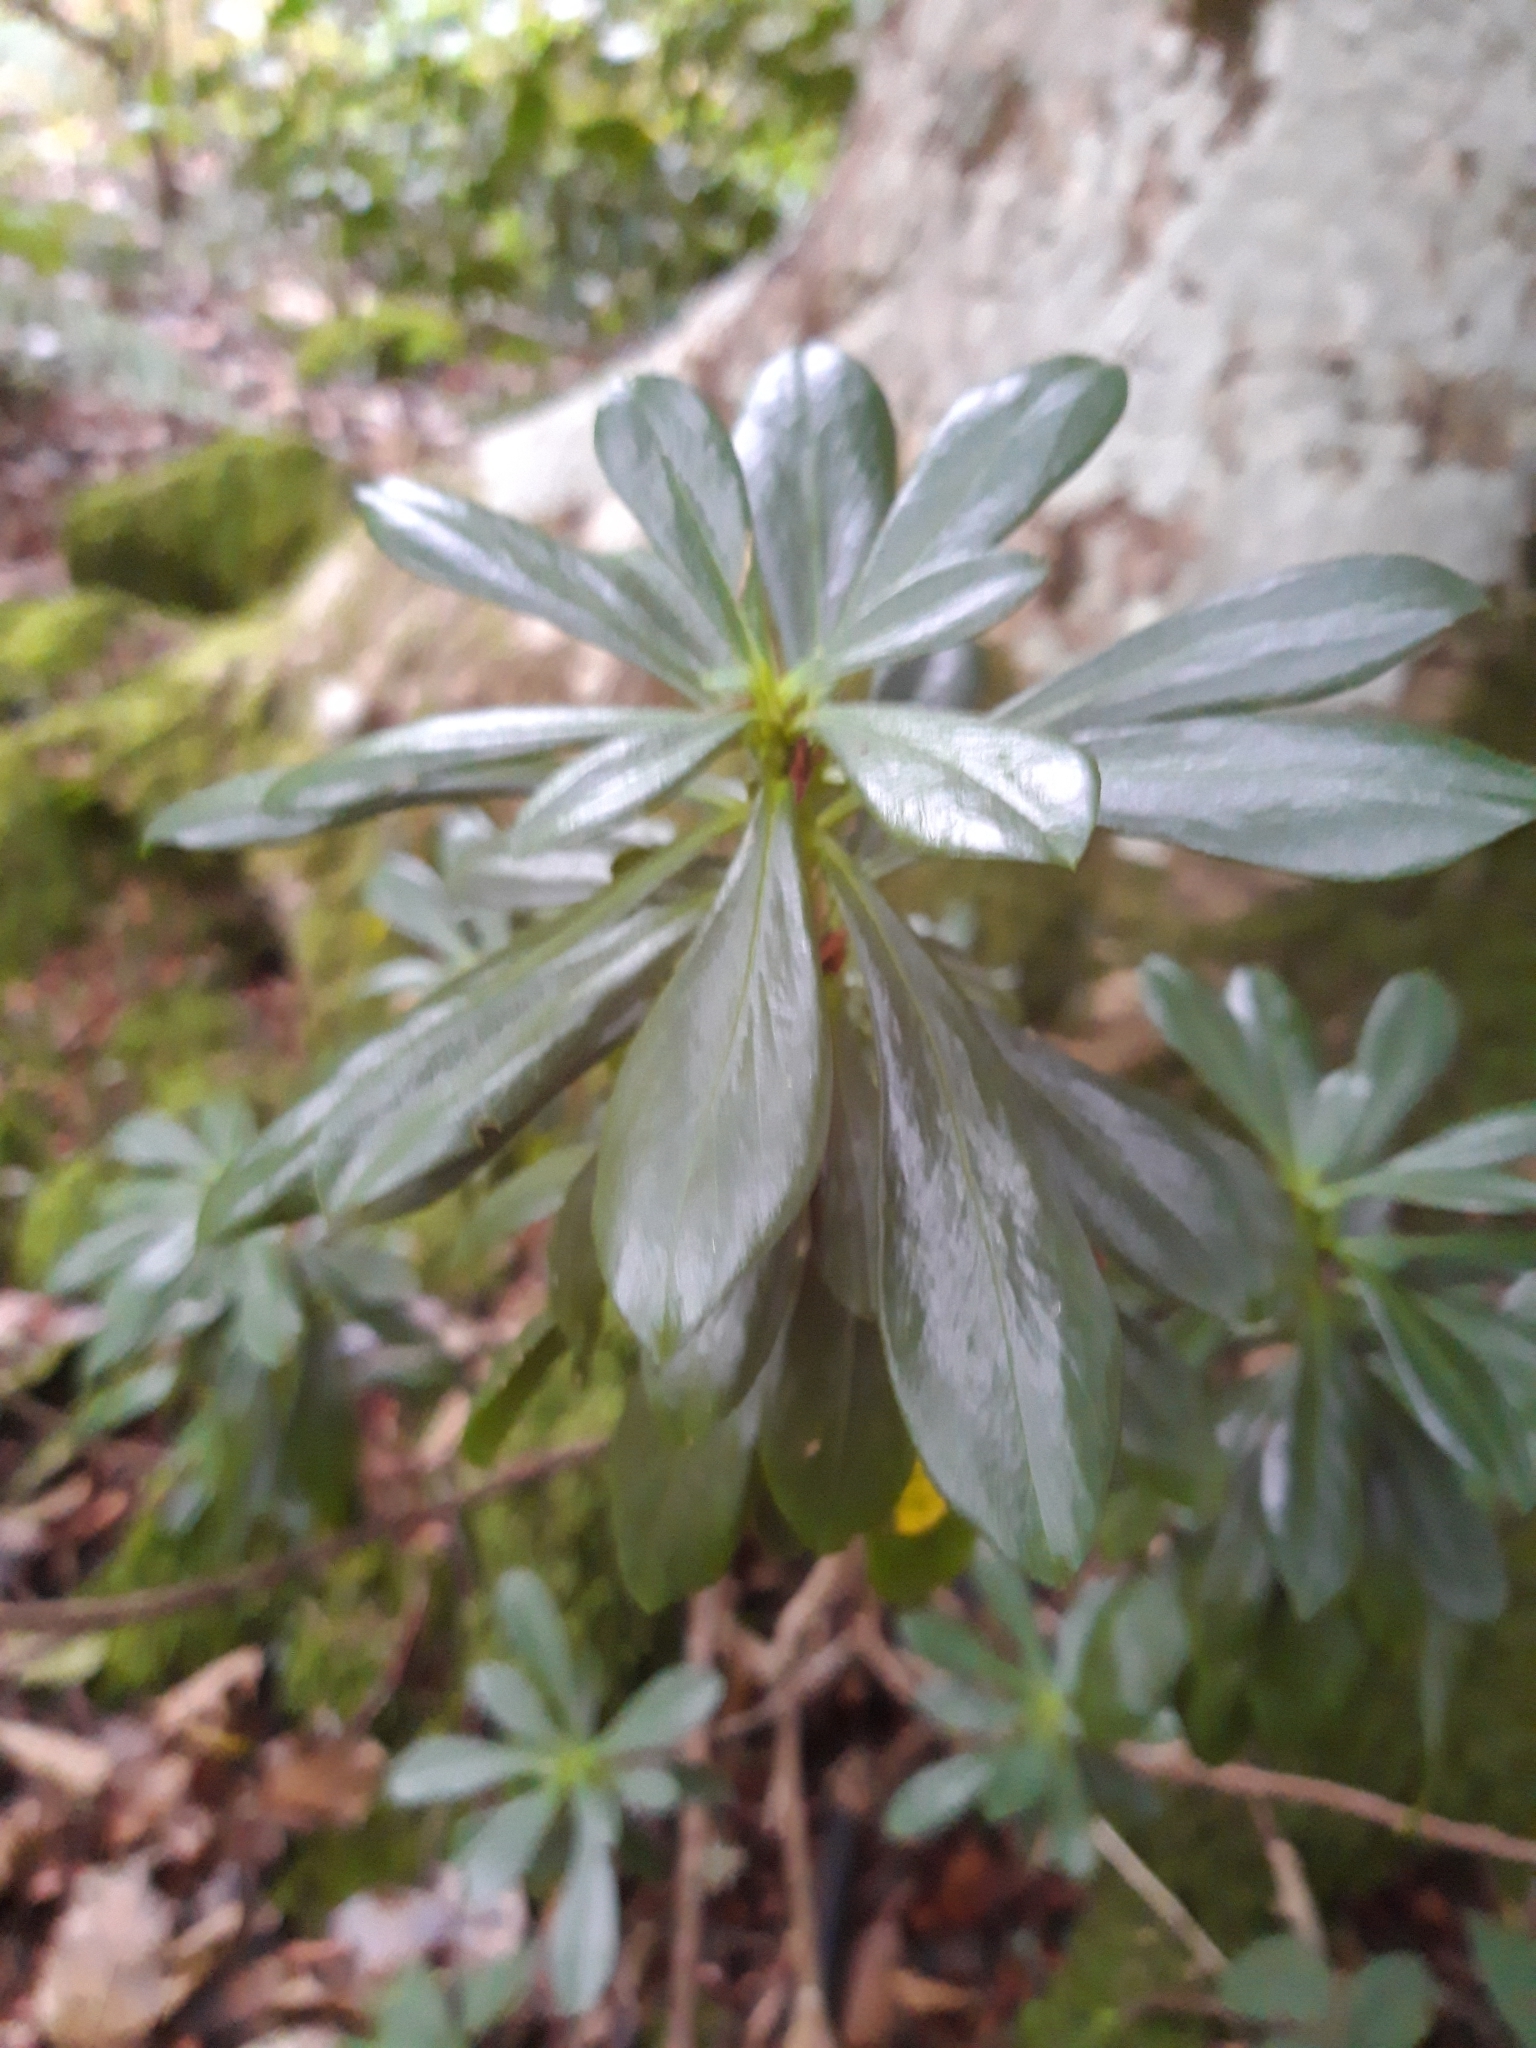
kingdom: Plantae
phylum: Tracheophyta
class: Magnoliopsida
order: Malvales
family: Thymelaeaceae
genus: Daphne
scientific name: Daphne laureola
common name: Spurge-laurel
